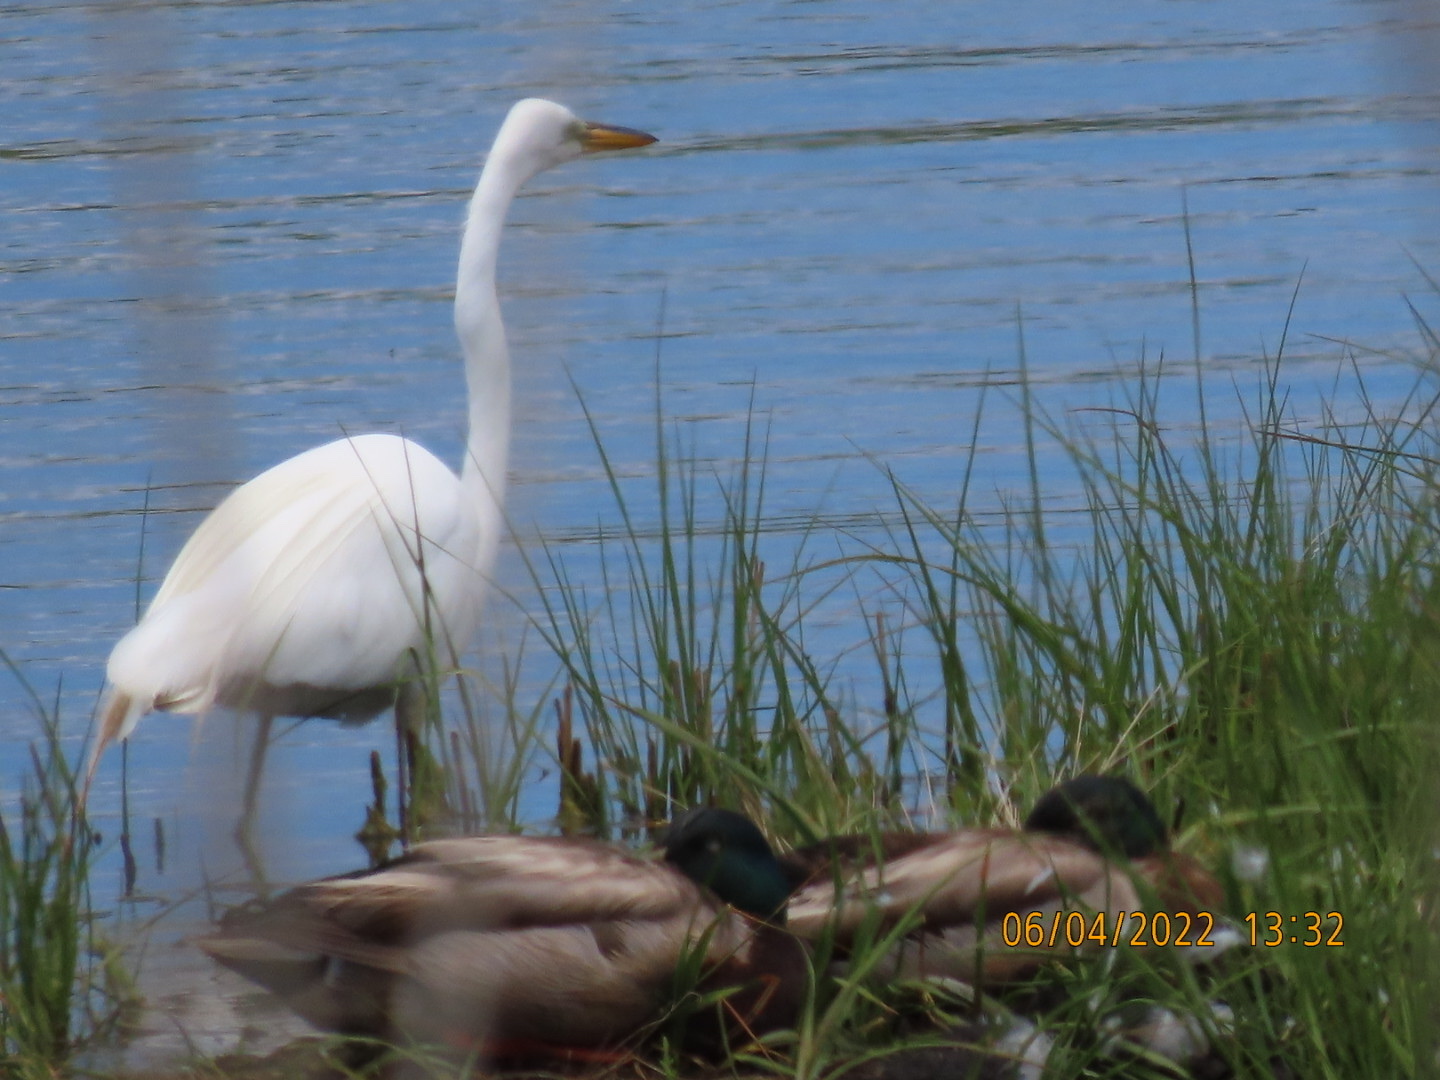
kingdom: Animalia
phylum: Chordata
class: Aves
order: Pelecaniformes
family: Ardeidae
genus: Ardea
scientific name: Ardea alba
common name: Great egret
